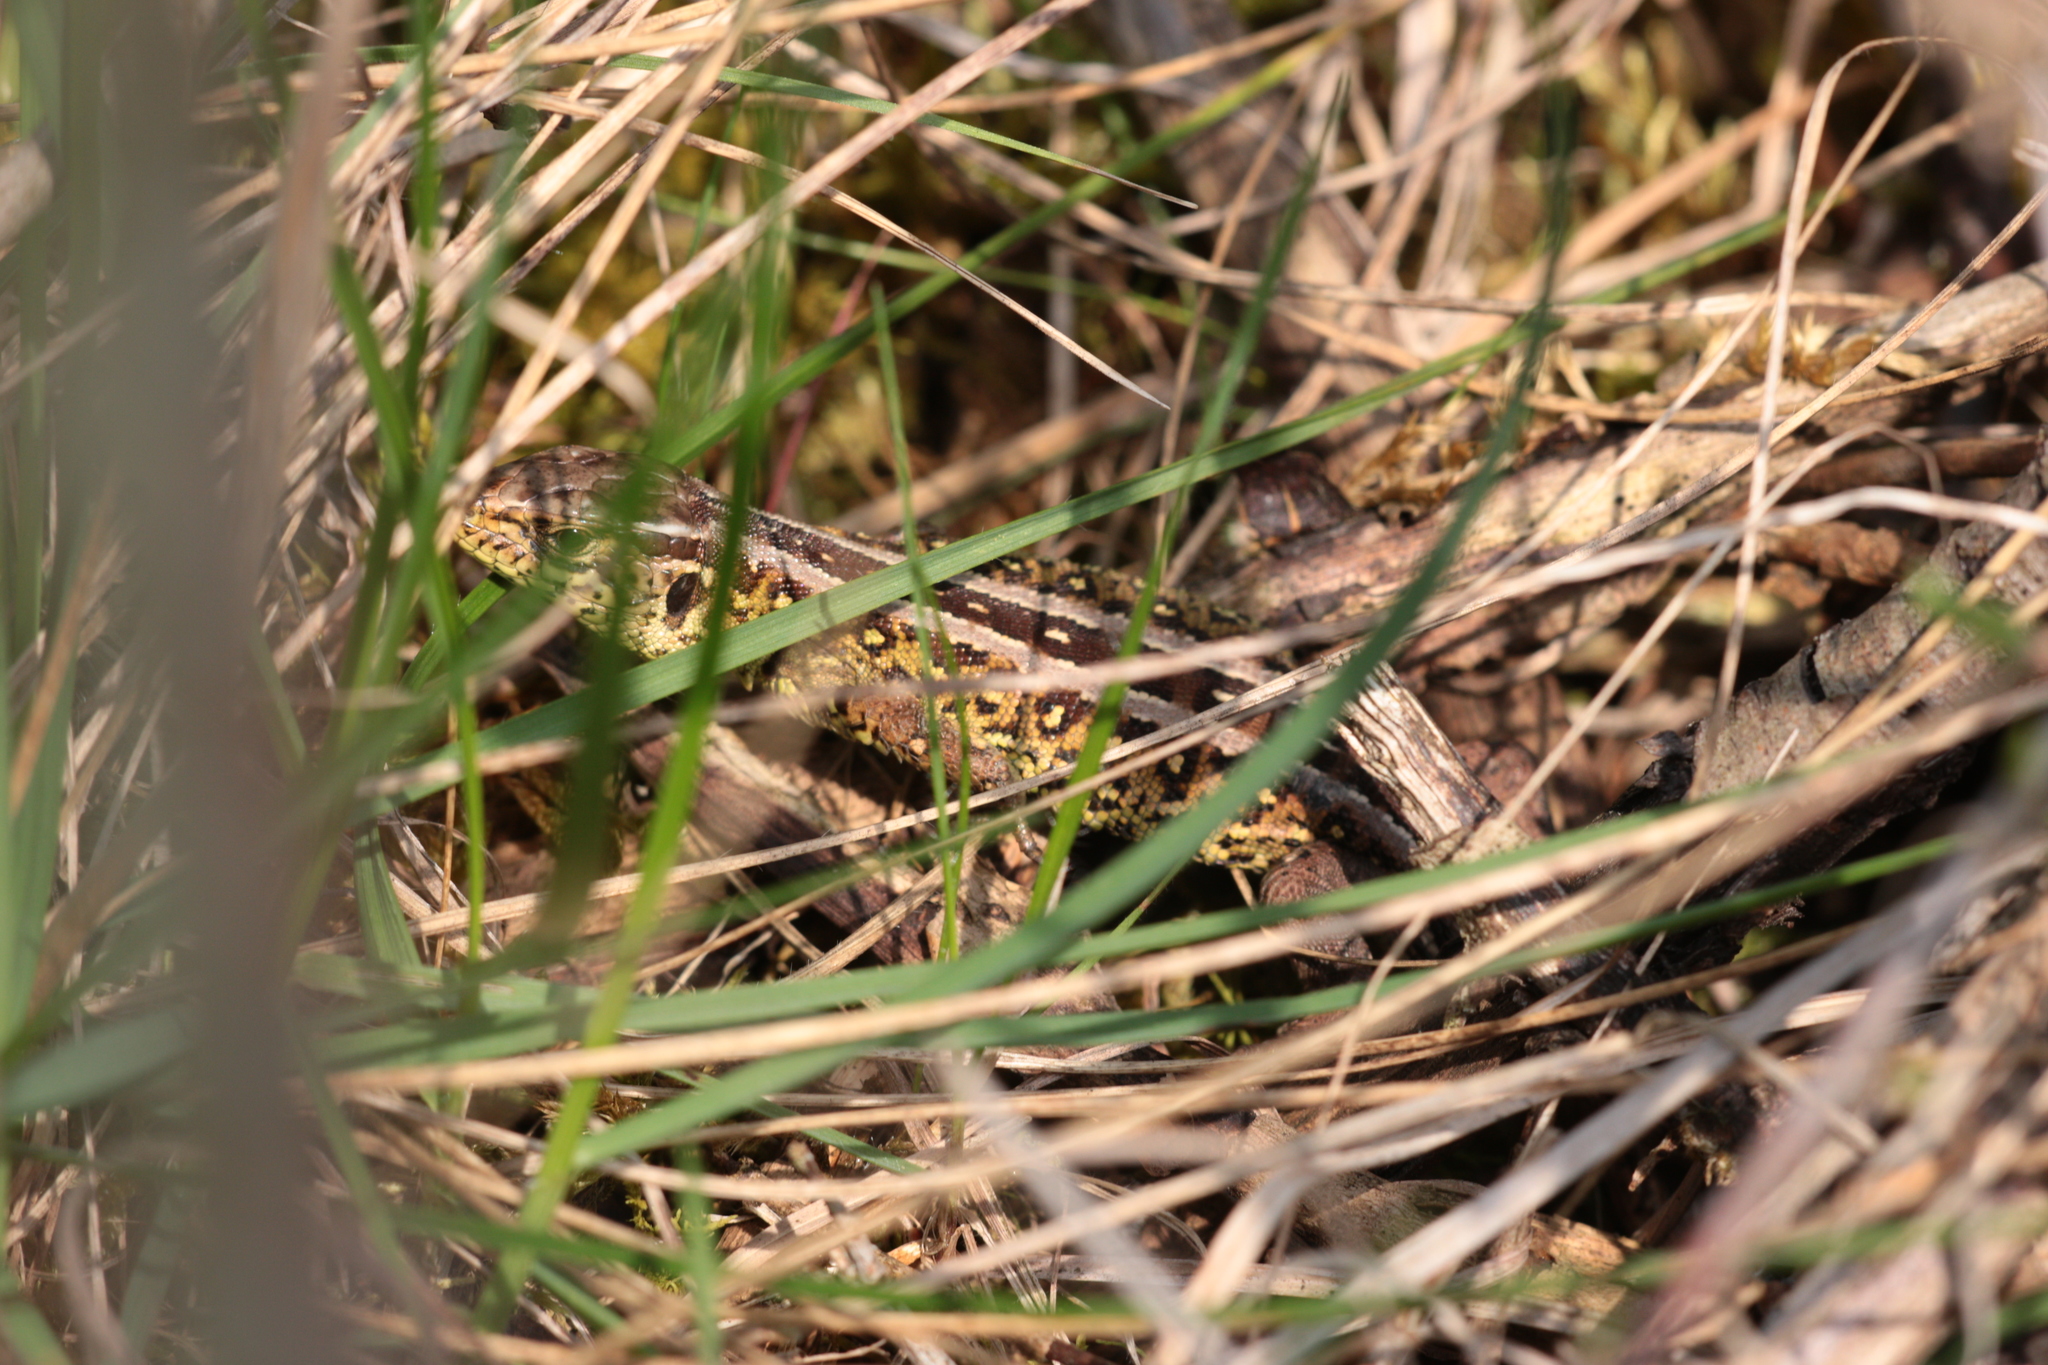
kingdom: Animalia
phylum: Chordata
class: Squamata
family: Lacertidae
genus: Lacerta
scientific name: Lacerta agilis
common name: Sand lizard
